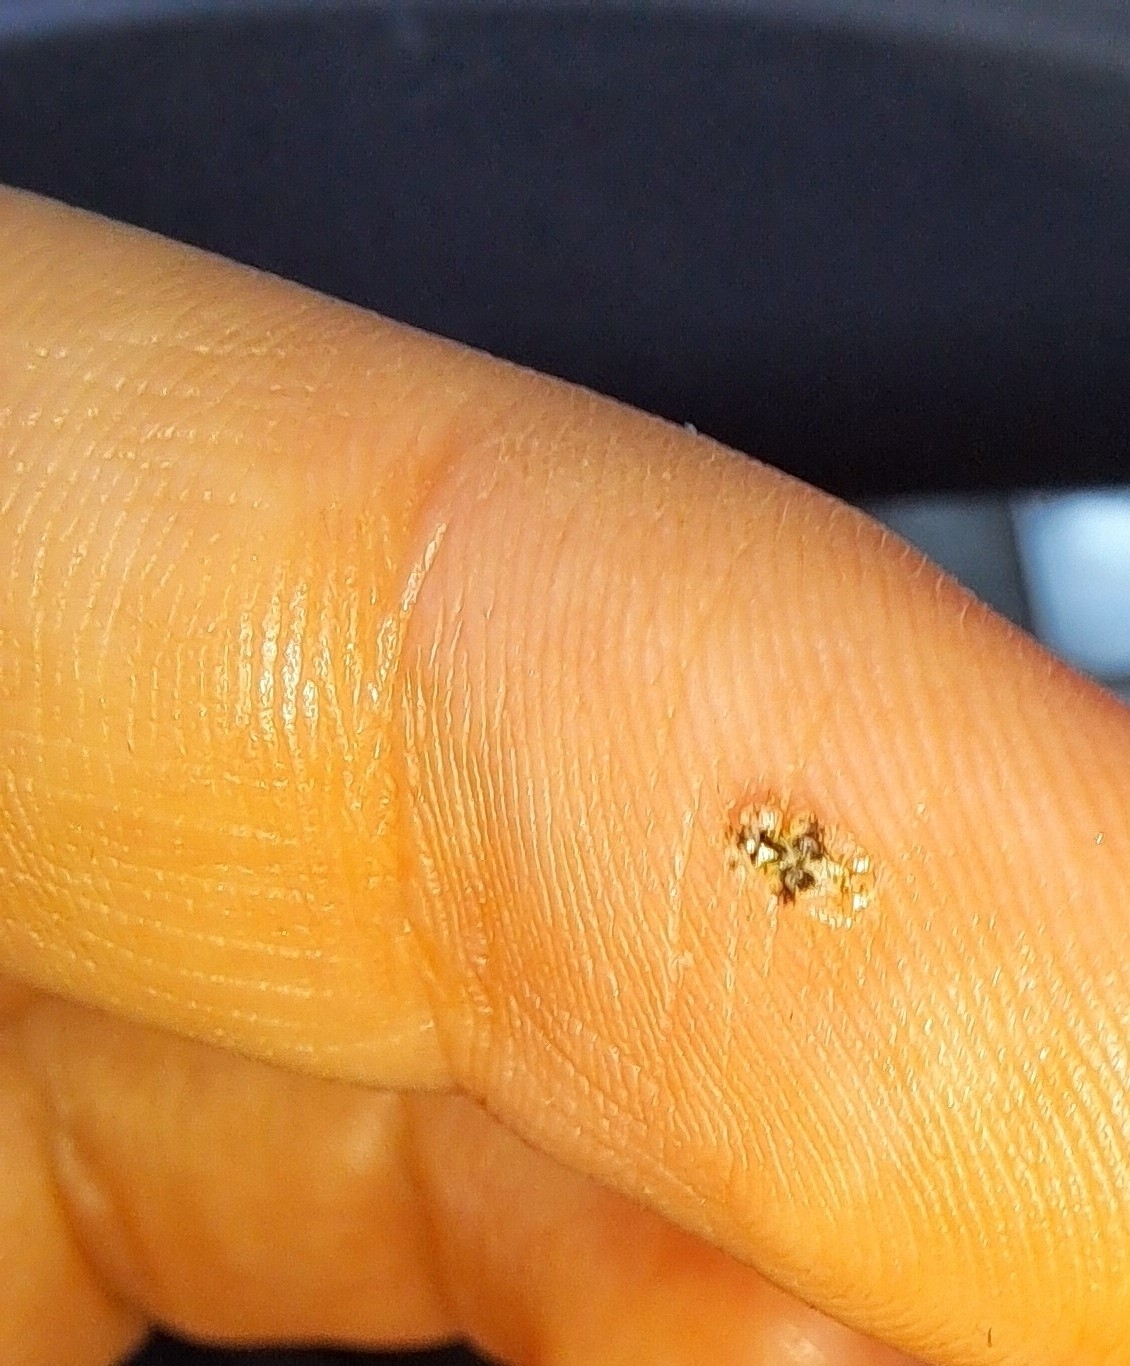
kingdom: Animalia
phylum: Arthropoda
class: Insecta
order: Hemiptera
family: Tingidae
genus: Corythucha
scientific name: Corythucha arcuata
